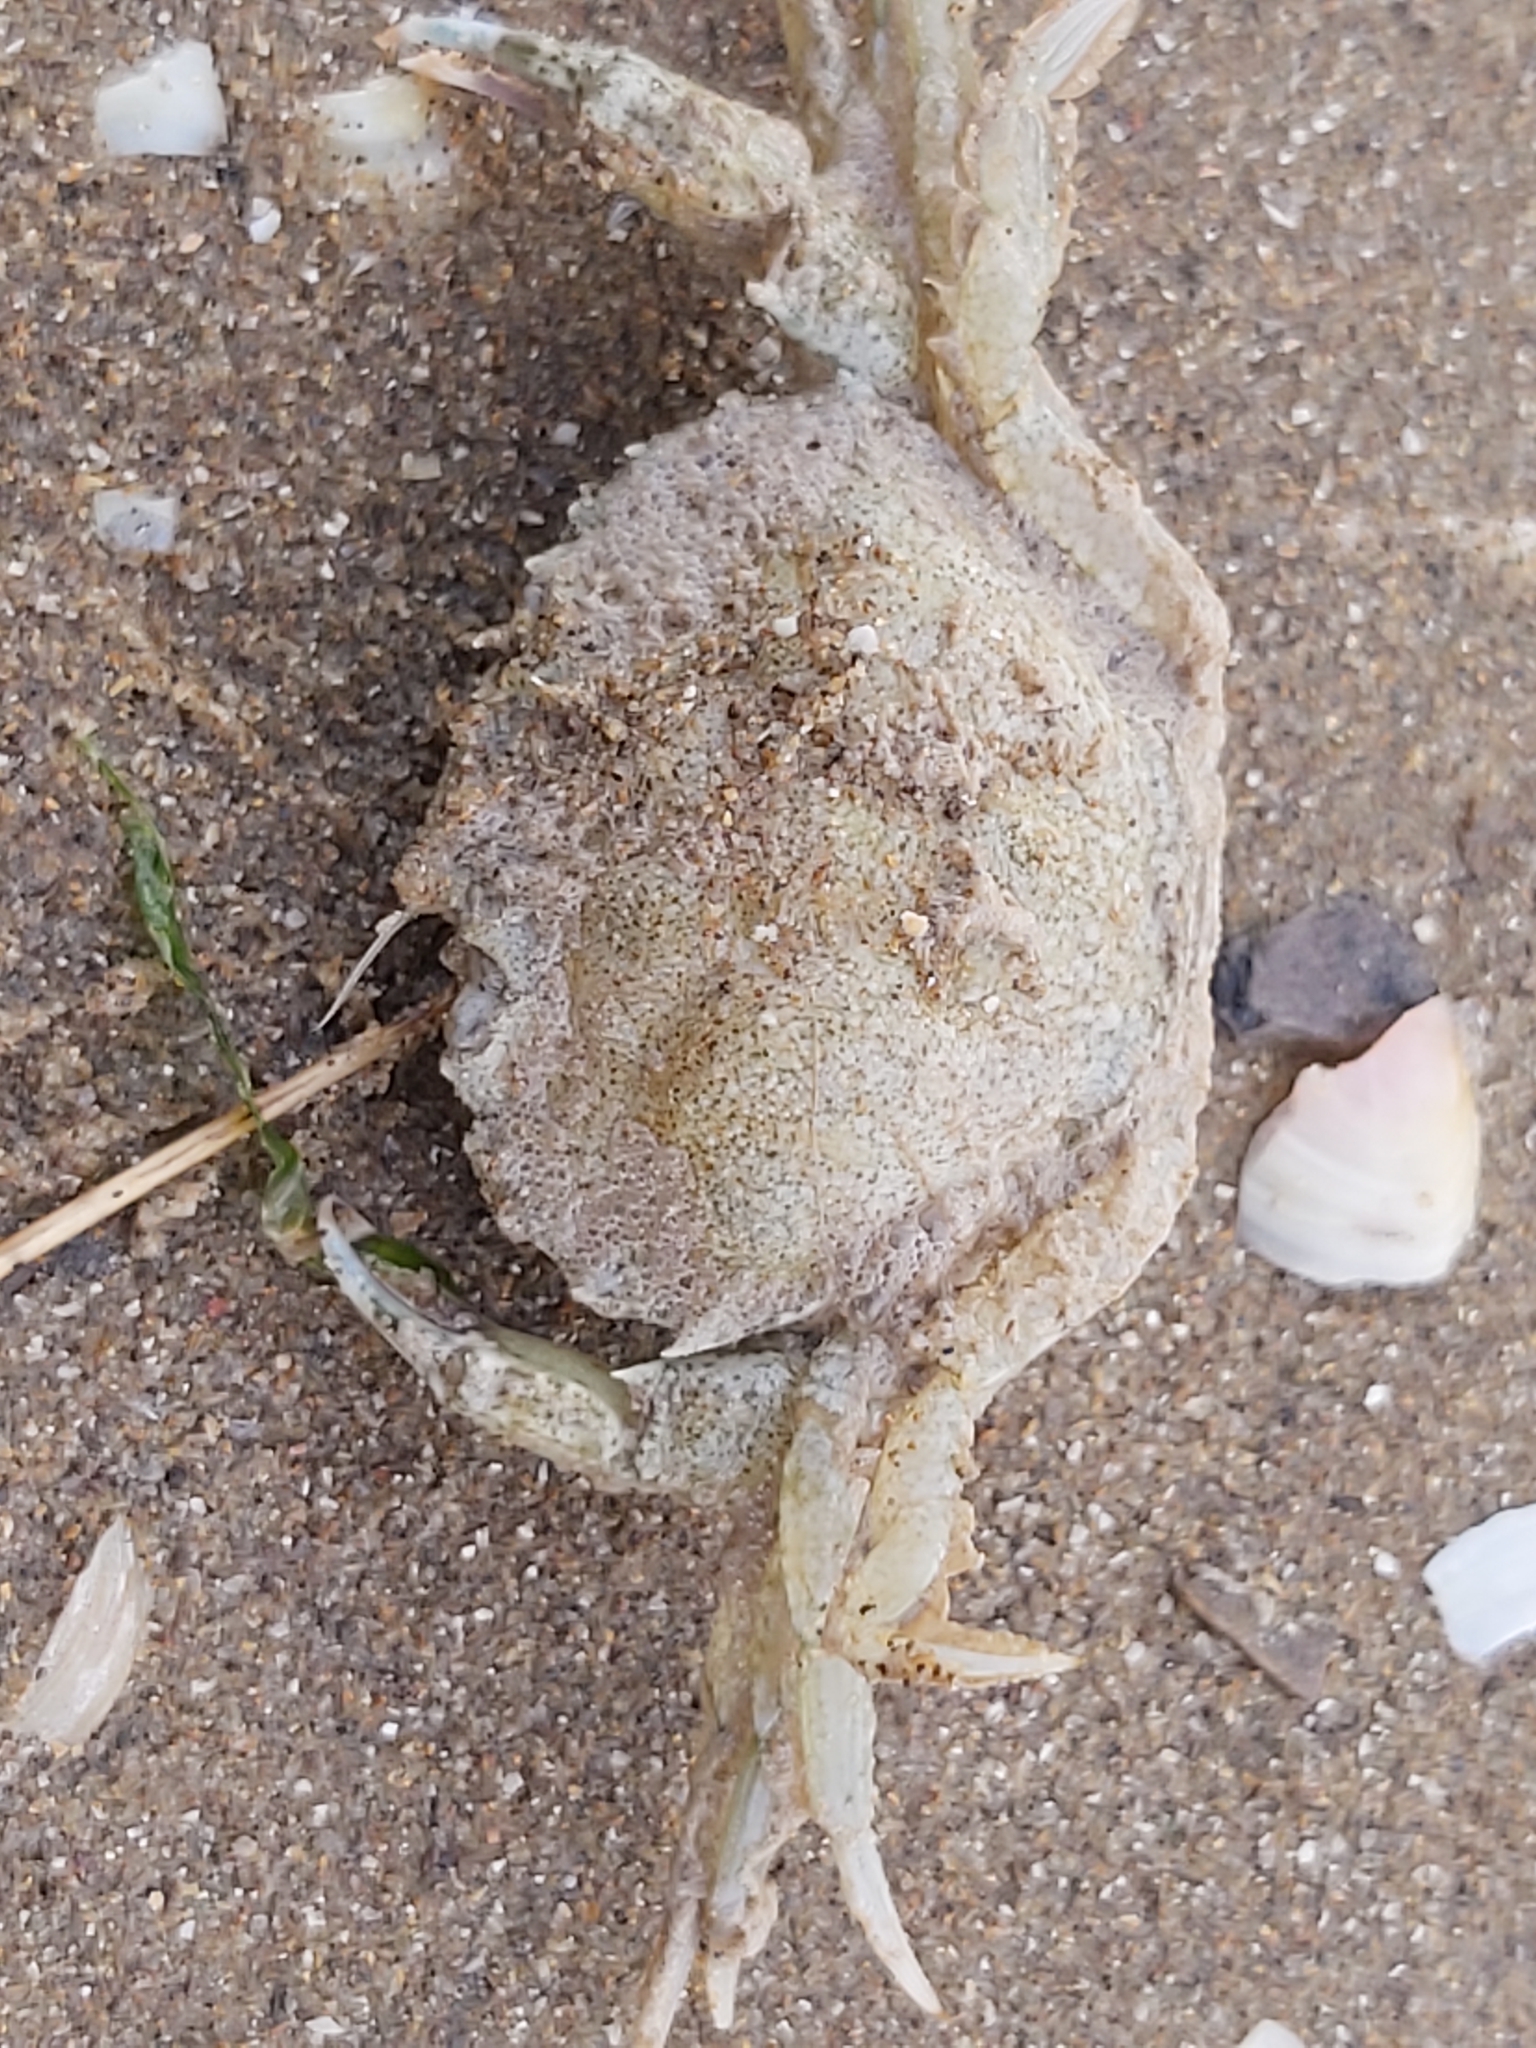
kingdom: Animalia
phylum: Arthropoda
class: Malacostraca
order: Decapoda
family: Carcinidae
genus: Carcinus
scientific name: Carcinus maenas
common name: European green crab
